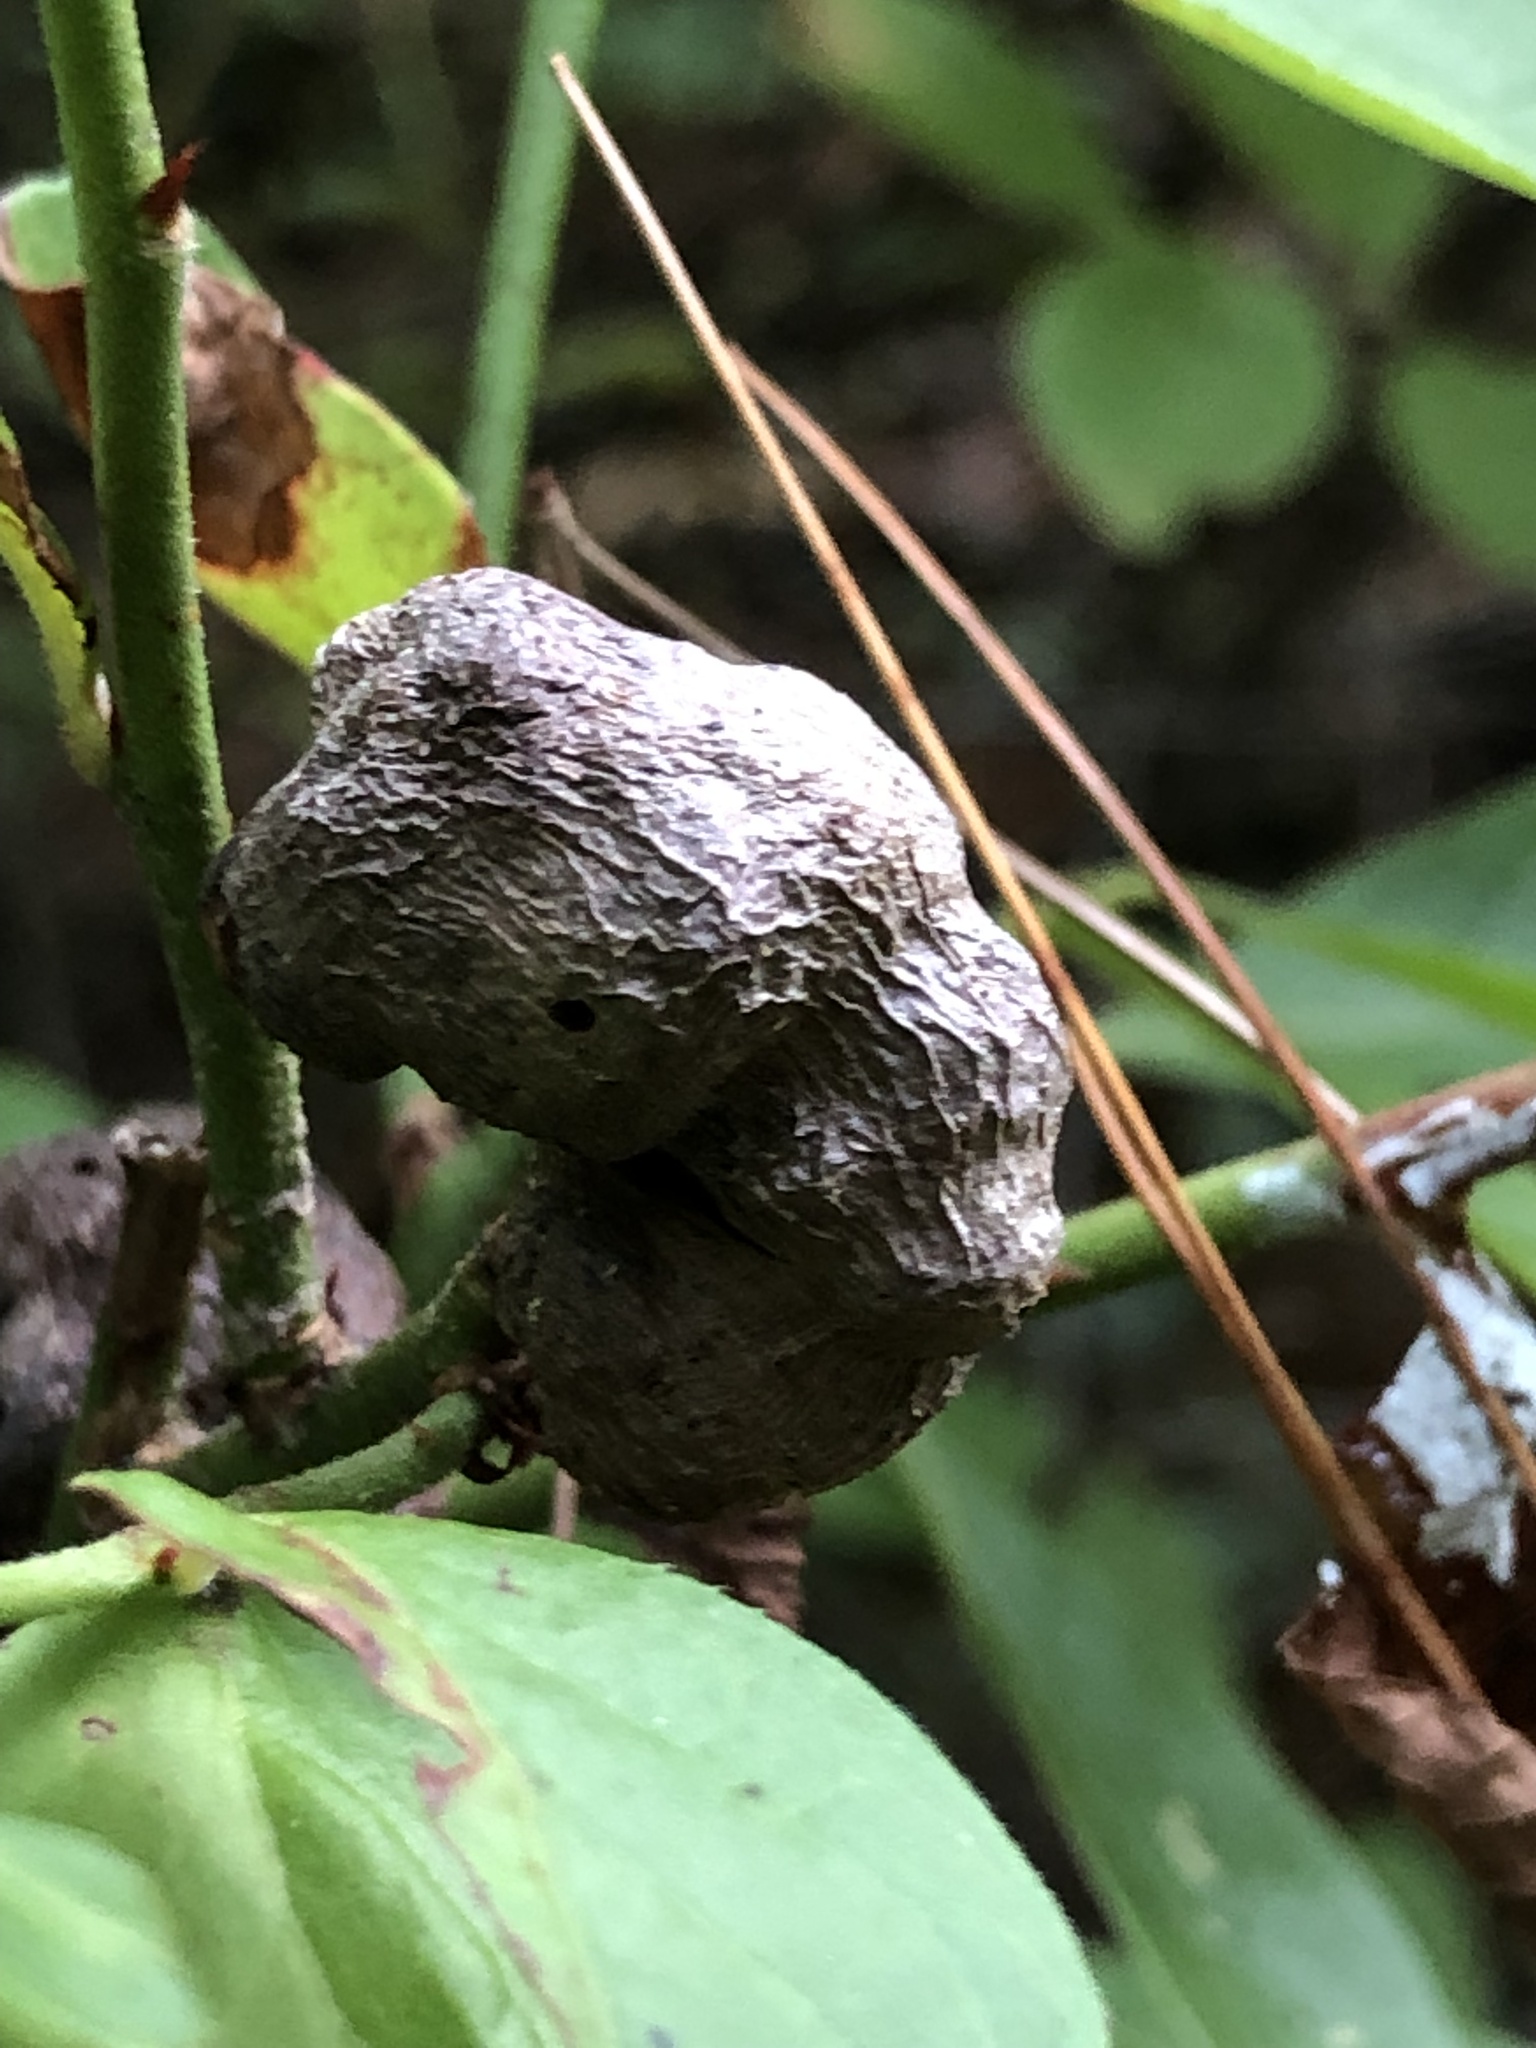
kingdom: Animalia
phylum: Arthropoda
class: Insecta
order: Hymenoptera
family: Pteromalidae
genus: Hemadas
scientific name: Hemadas nubilipennis
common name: Blueberry stem gall wasp
